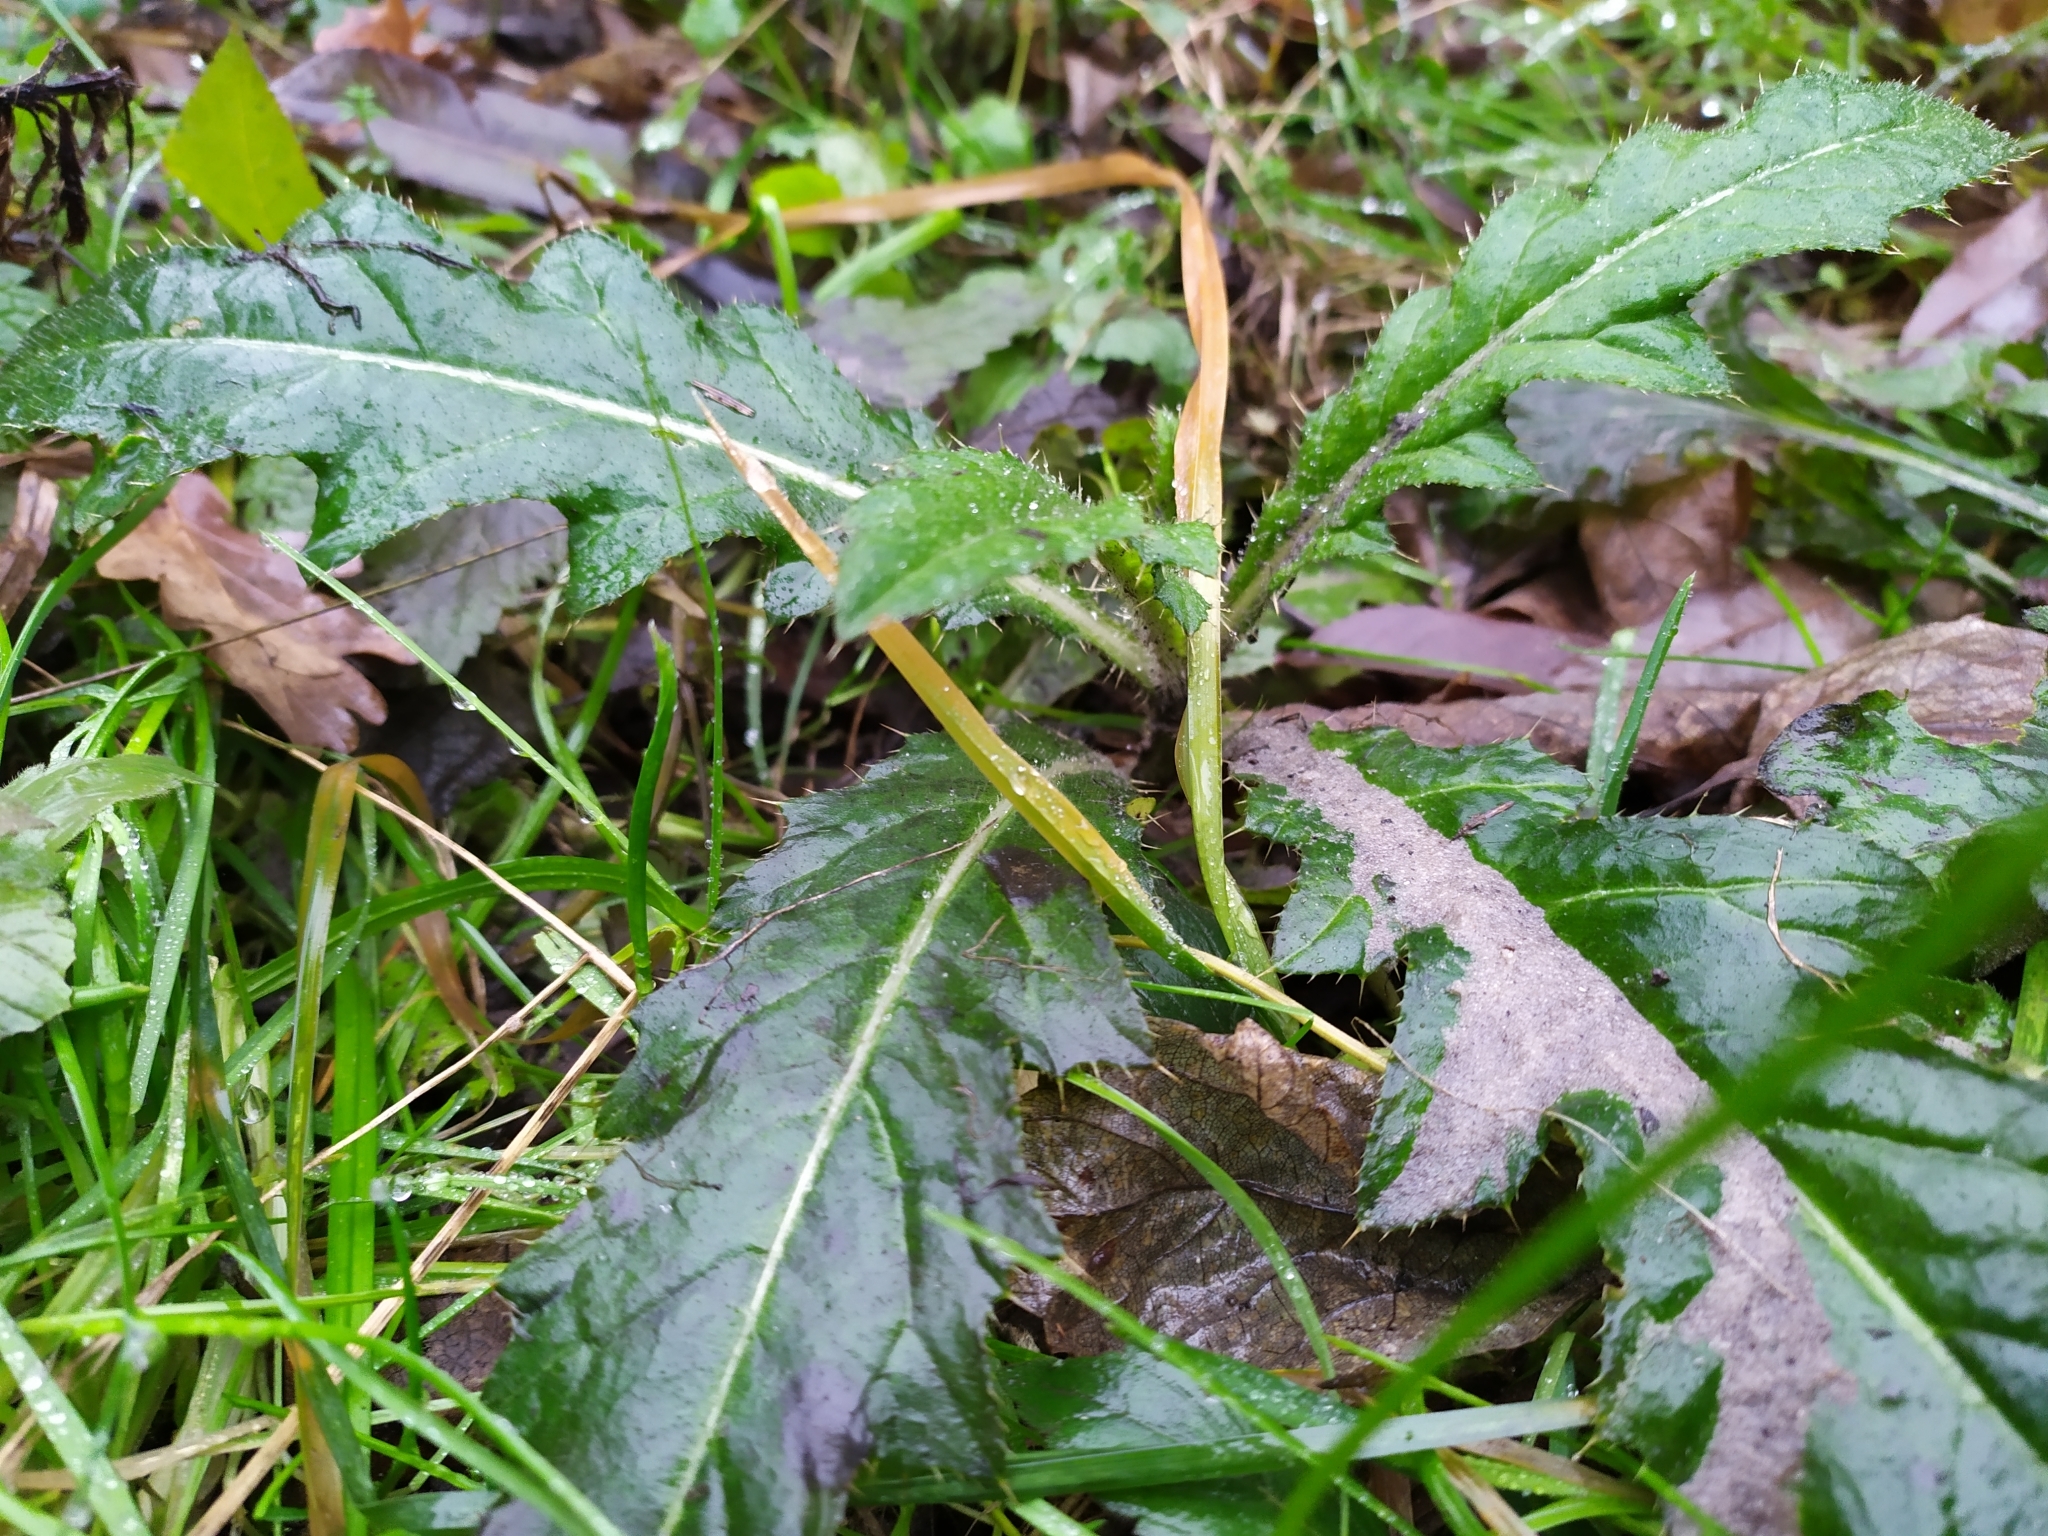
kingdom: Plantae
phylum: Tracheophyta
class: Magnoliopsida
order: Asterales
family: Asteraceae
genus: Cirsium
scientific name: Cirsium arvense
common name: Creeping thistle
